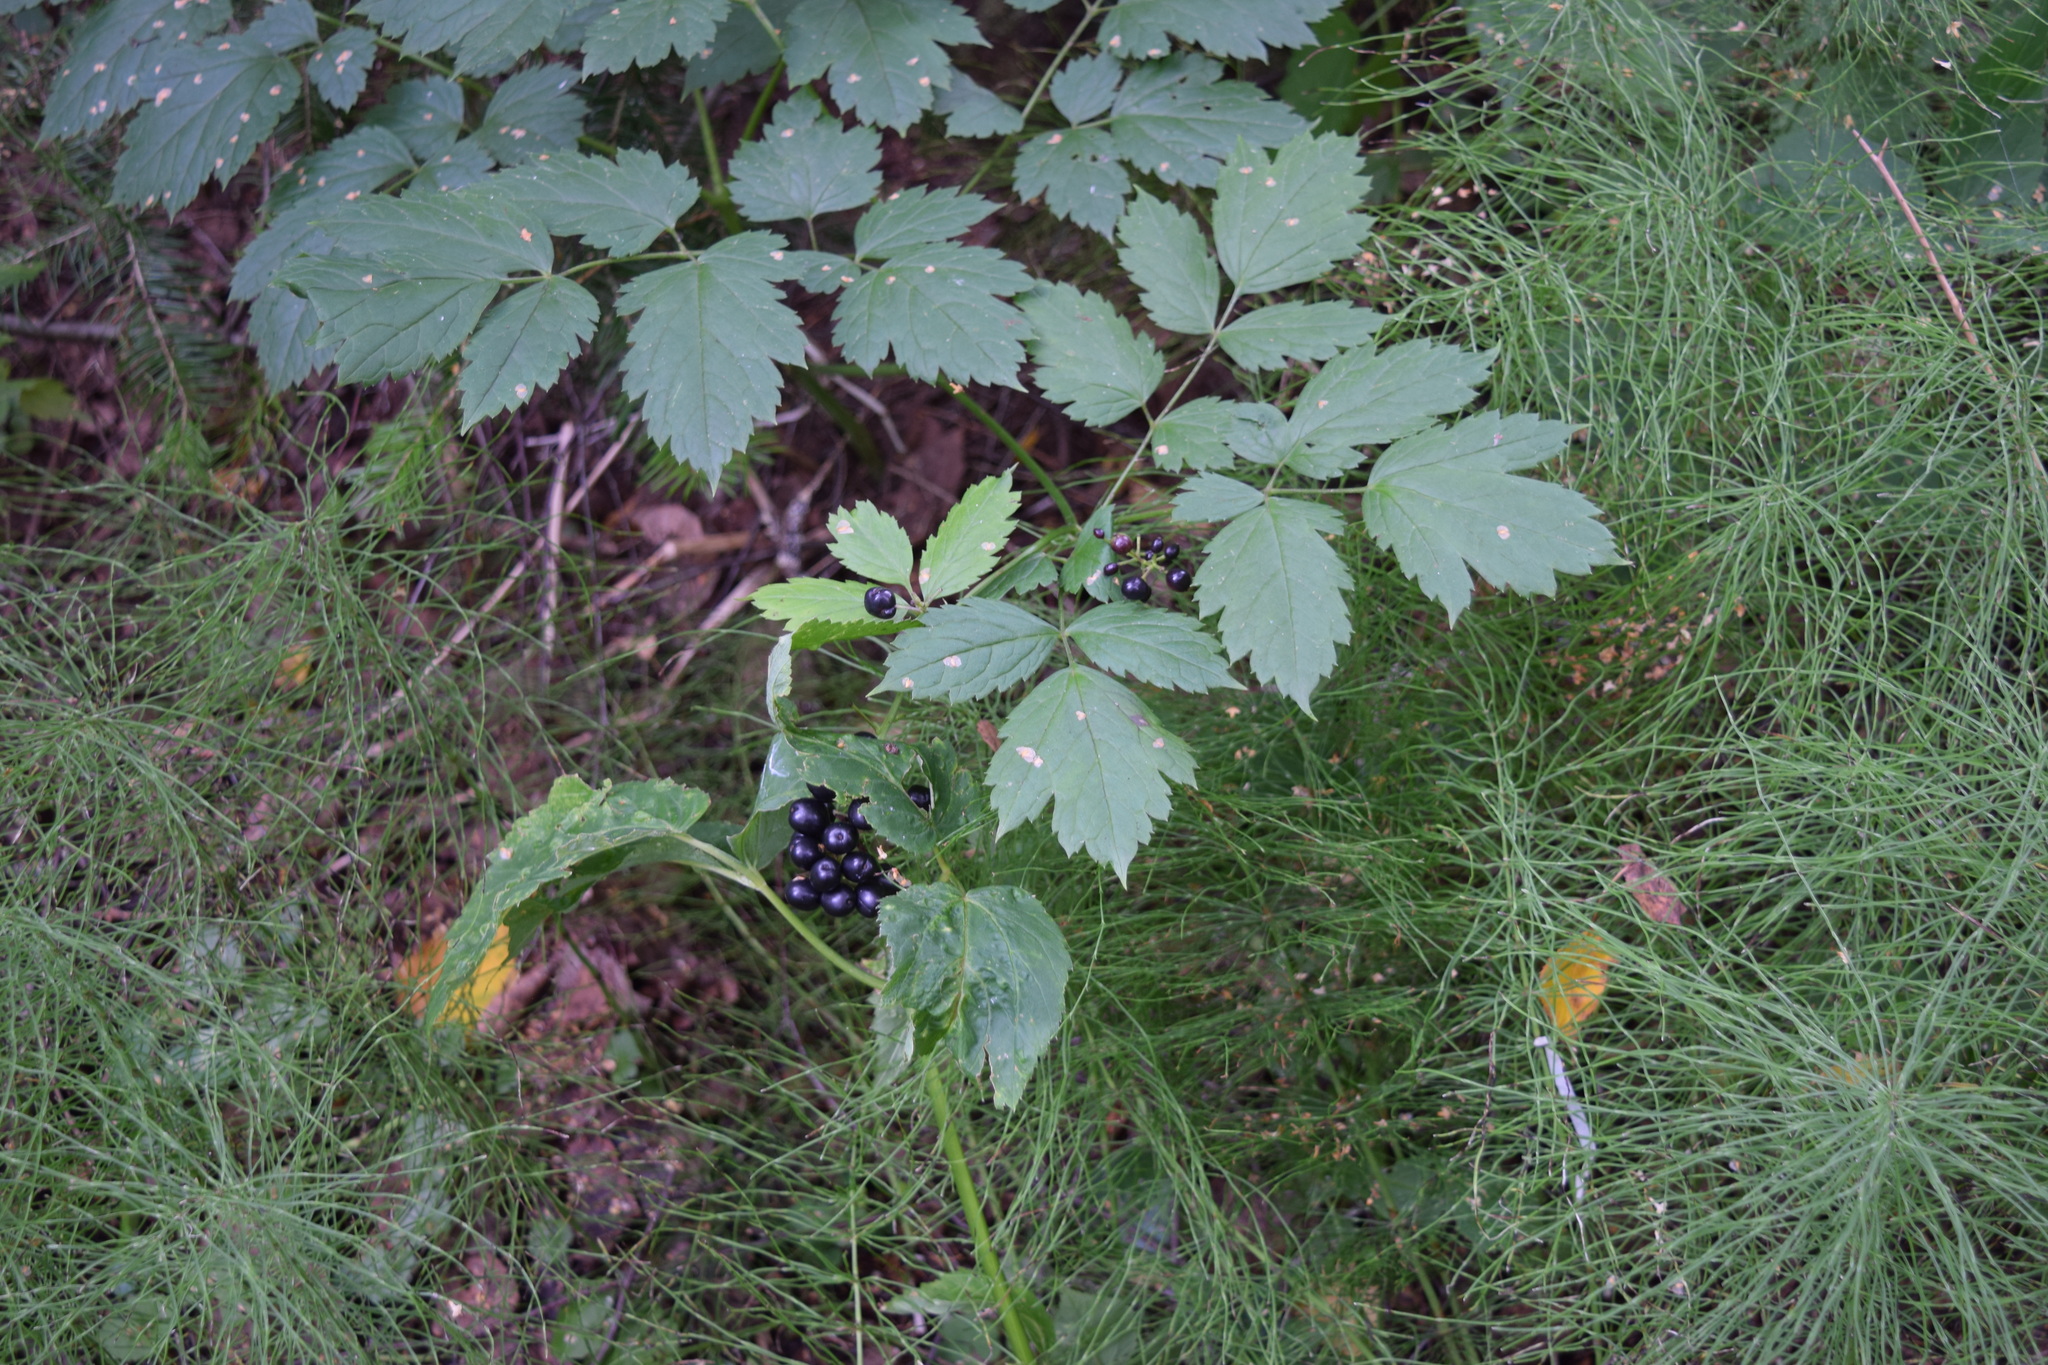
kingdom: Plantae
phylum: Tracheophyta
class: Magnoliopsida
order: Ranunculales
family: Ranunculaceae
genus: Actaea
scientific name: Actaea spicata
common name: Baneberry
